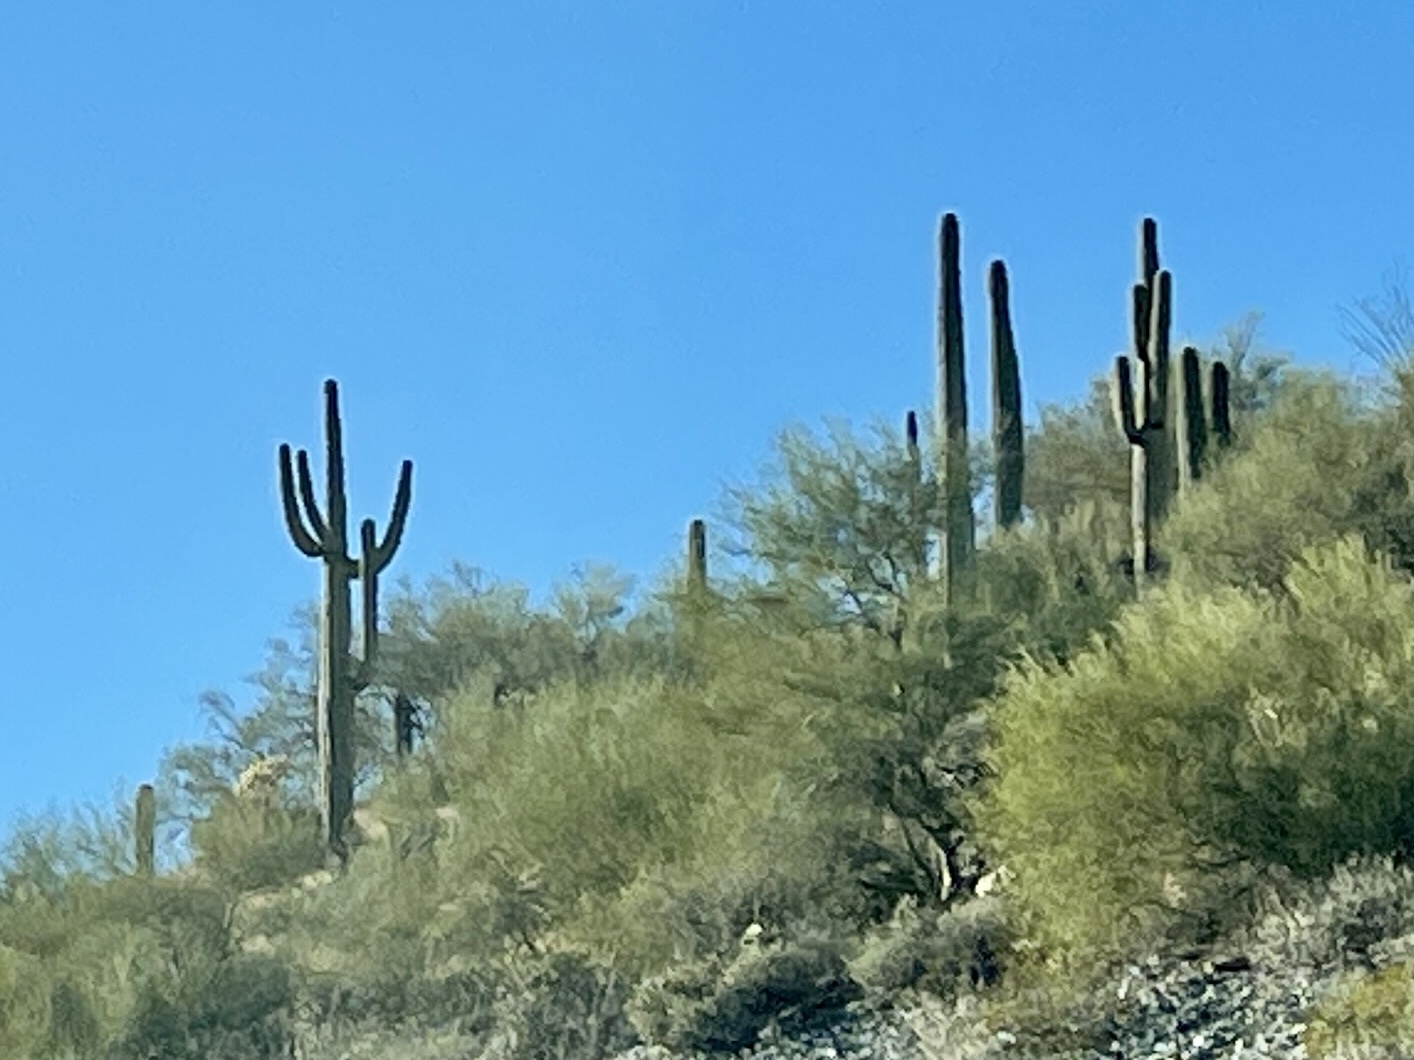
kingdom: Plantae
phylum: Tracheophyta
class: Magnoliopsida
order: Caryophyllales
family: Cactaceae
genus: Carnegiea
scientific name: Carnegiea gigantea
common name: Saguaro
